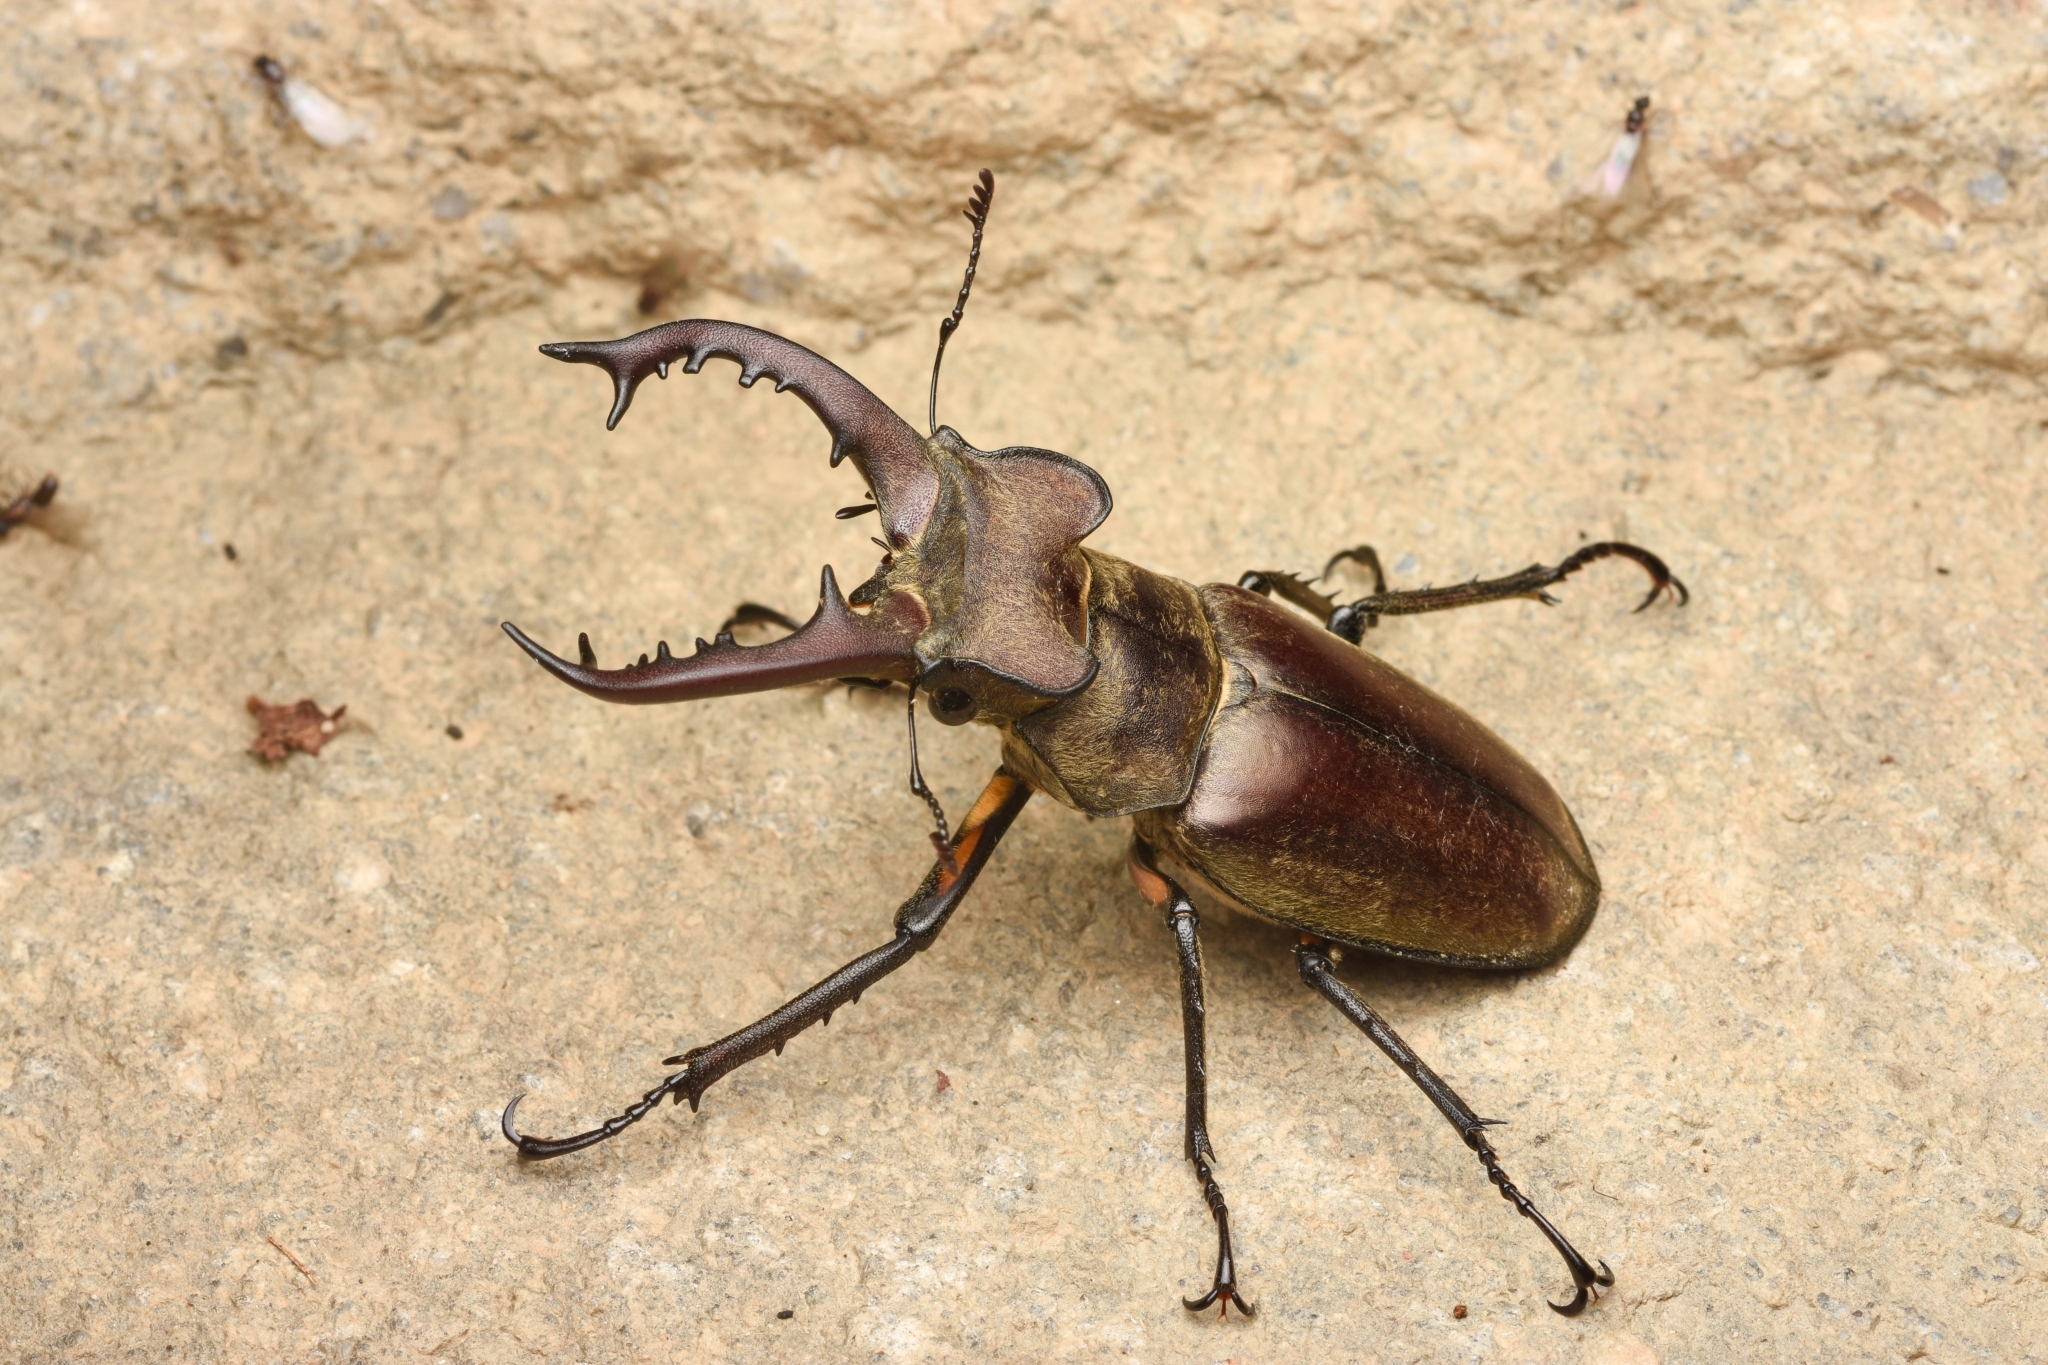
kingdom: Animalia
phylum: Arthropoda
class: Insecta
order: Coleoptera
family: Lucanidae
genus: Lucanus
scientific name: Lucanus maculifemoratus
